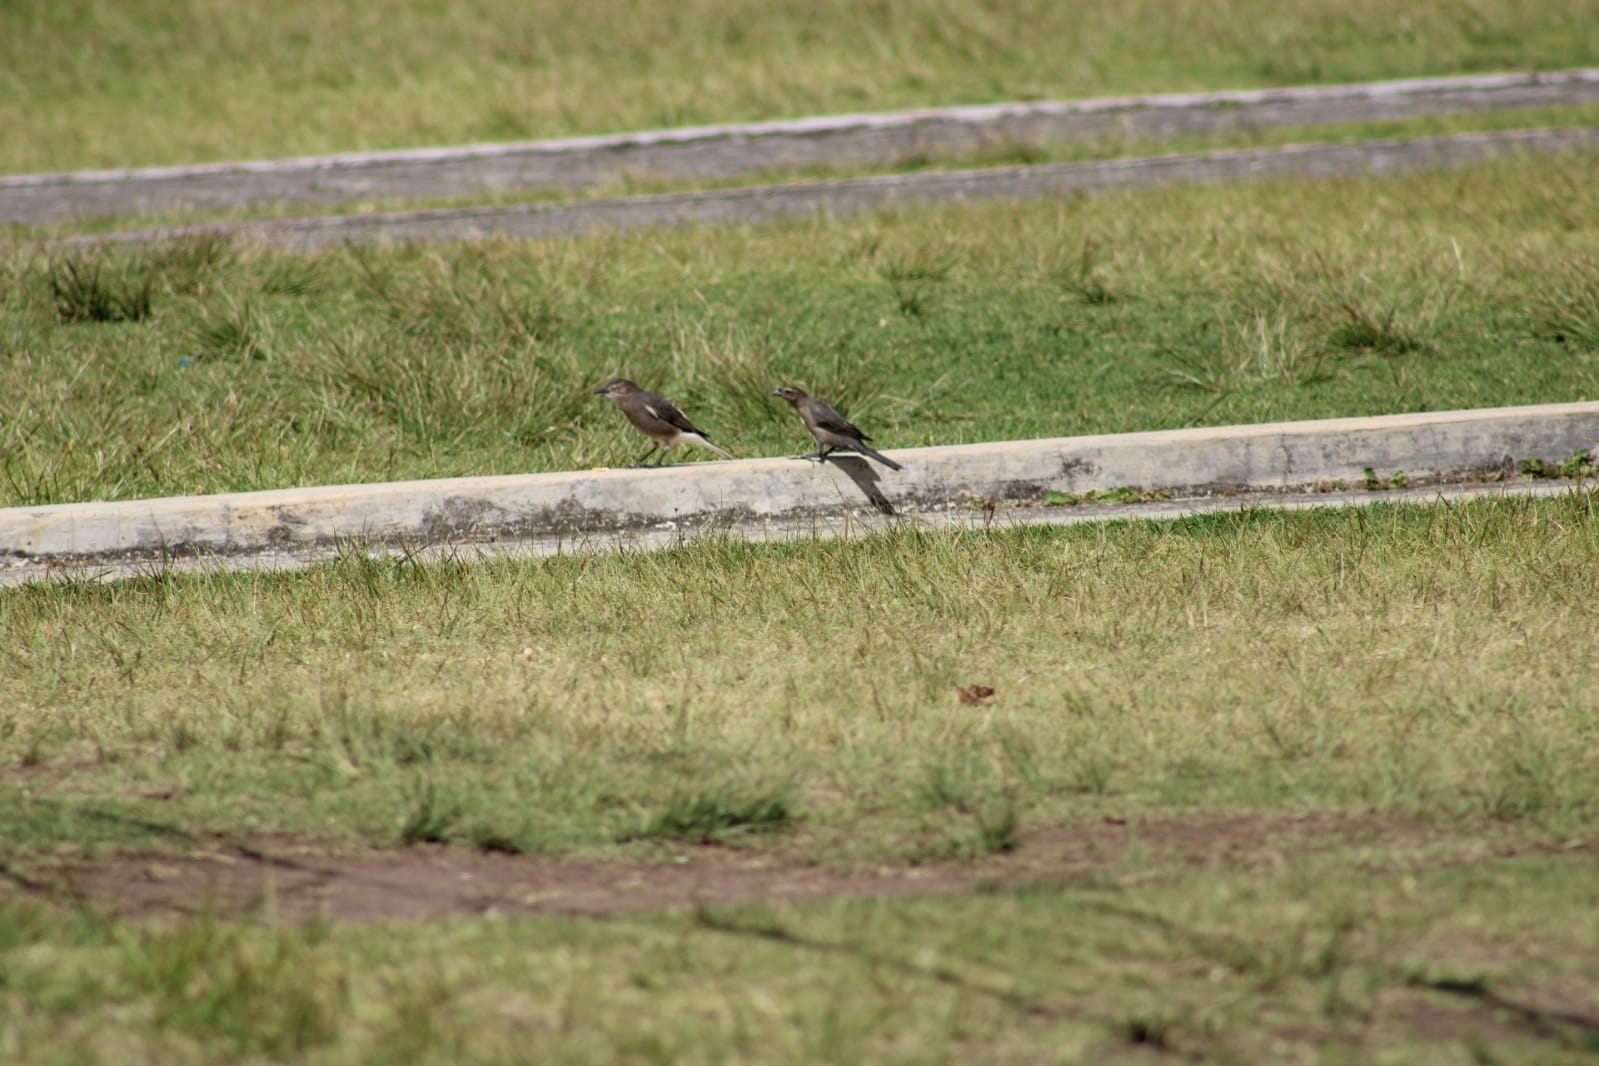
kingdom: Animalia
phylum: Chordata
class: Aves
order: Passeriformes
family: Tyrannidae
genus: Agriornis
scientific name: Agriornis montanus
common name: Black-billed shrike-tyrant
